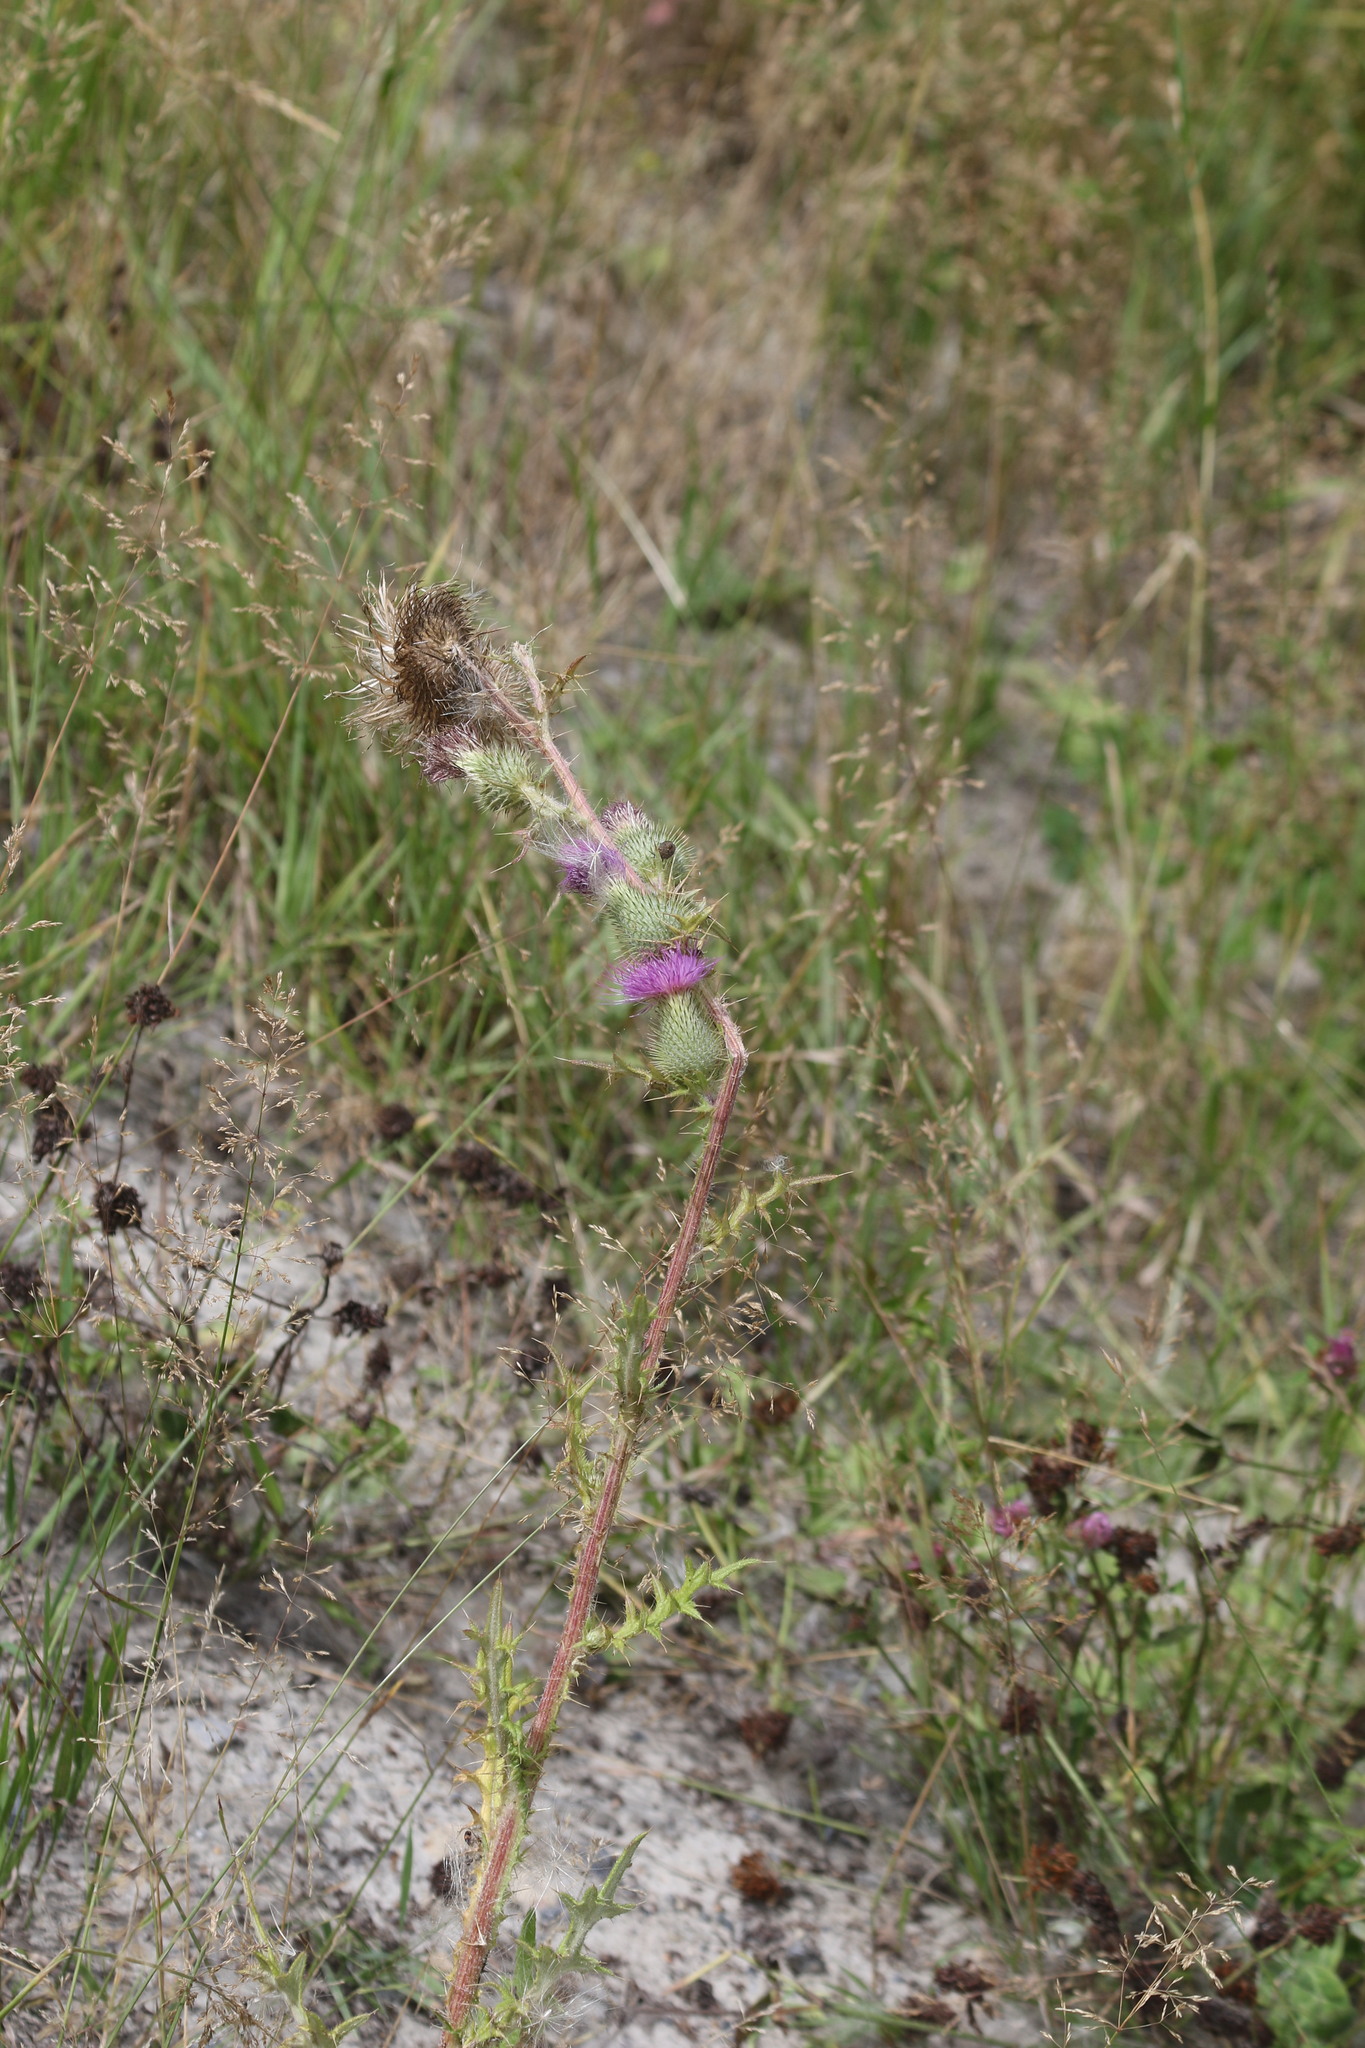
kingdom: Plantae
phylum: Tracheophyta
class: Magnoliopsida
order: Asterales
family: Asteraceae
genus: Cirsium
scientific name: Cirsium vulgare
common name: Bull thistle
